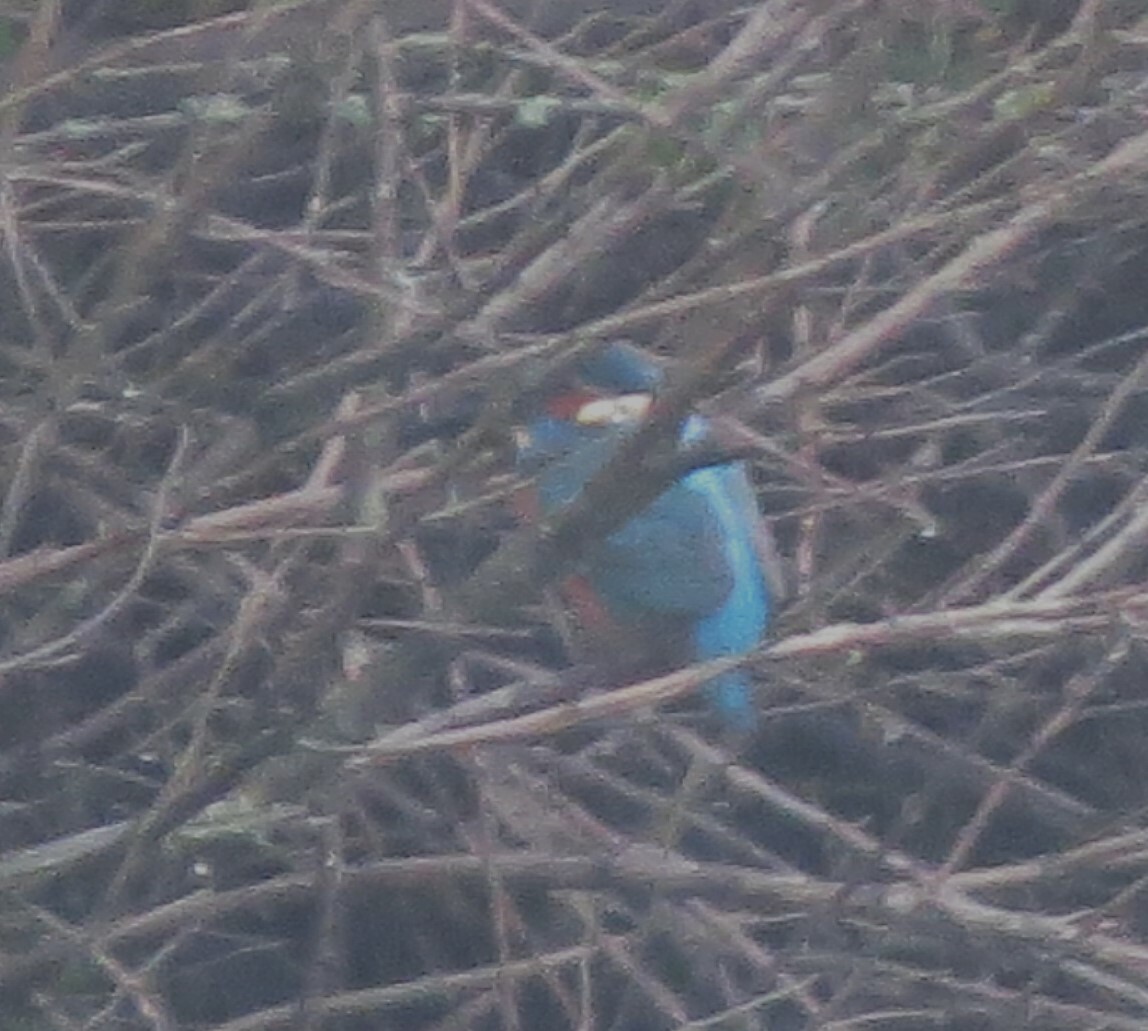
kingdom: Animalia
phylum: Chordata
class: Aves
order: Coraciiformes
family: Alcedinidae
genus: Alcedo
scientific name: Alcedo atthis
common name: Common kingfisher
